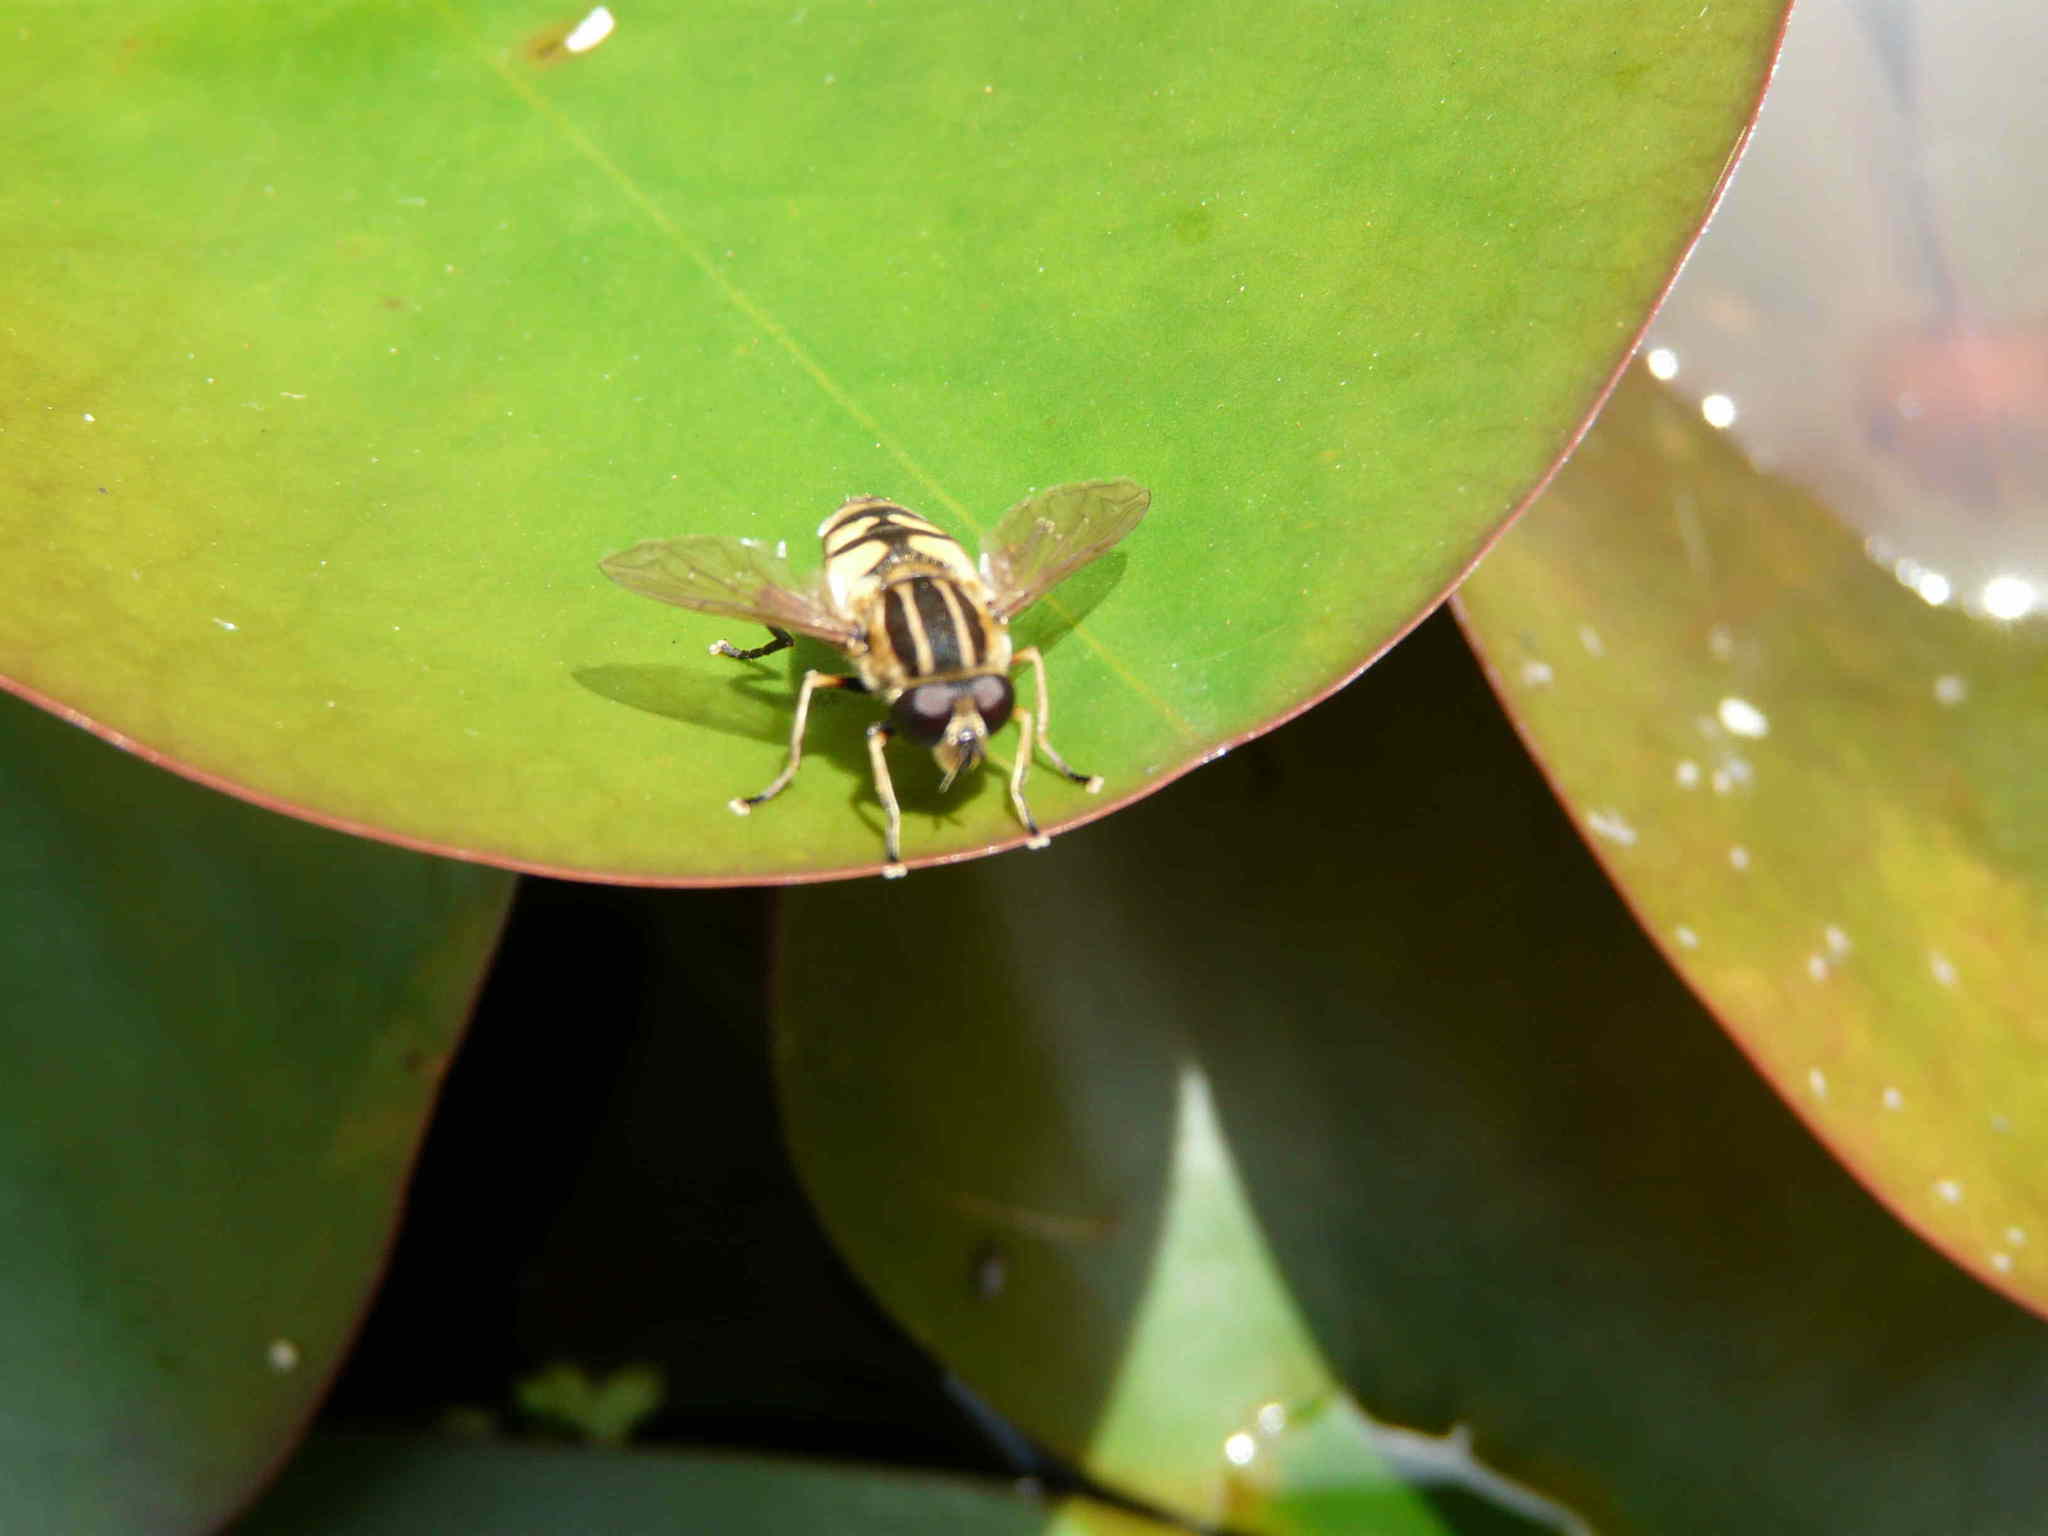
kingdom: Animalia
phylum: Arthropoda
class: Insecta
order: Diptera
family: Syrphidae
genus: Helophilus
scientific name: Helophilus pendulus
